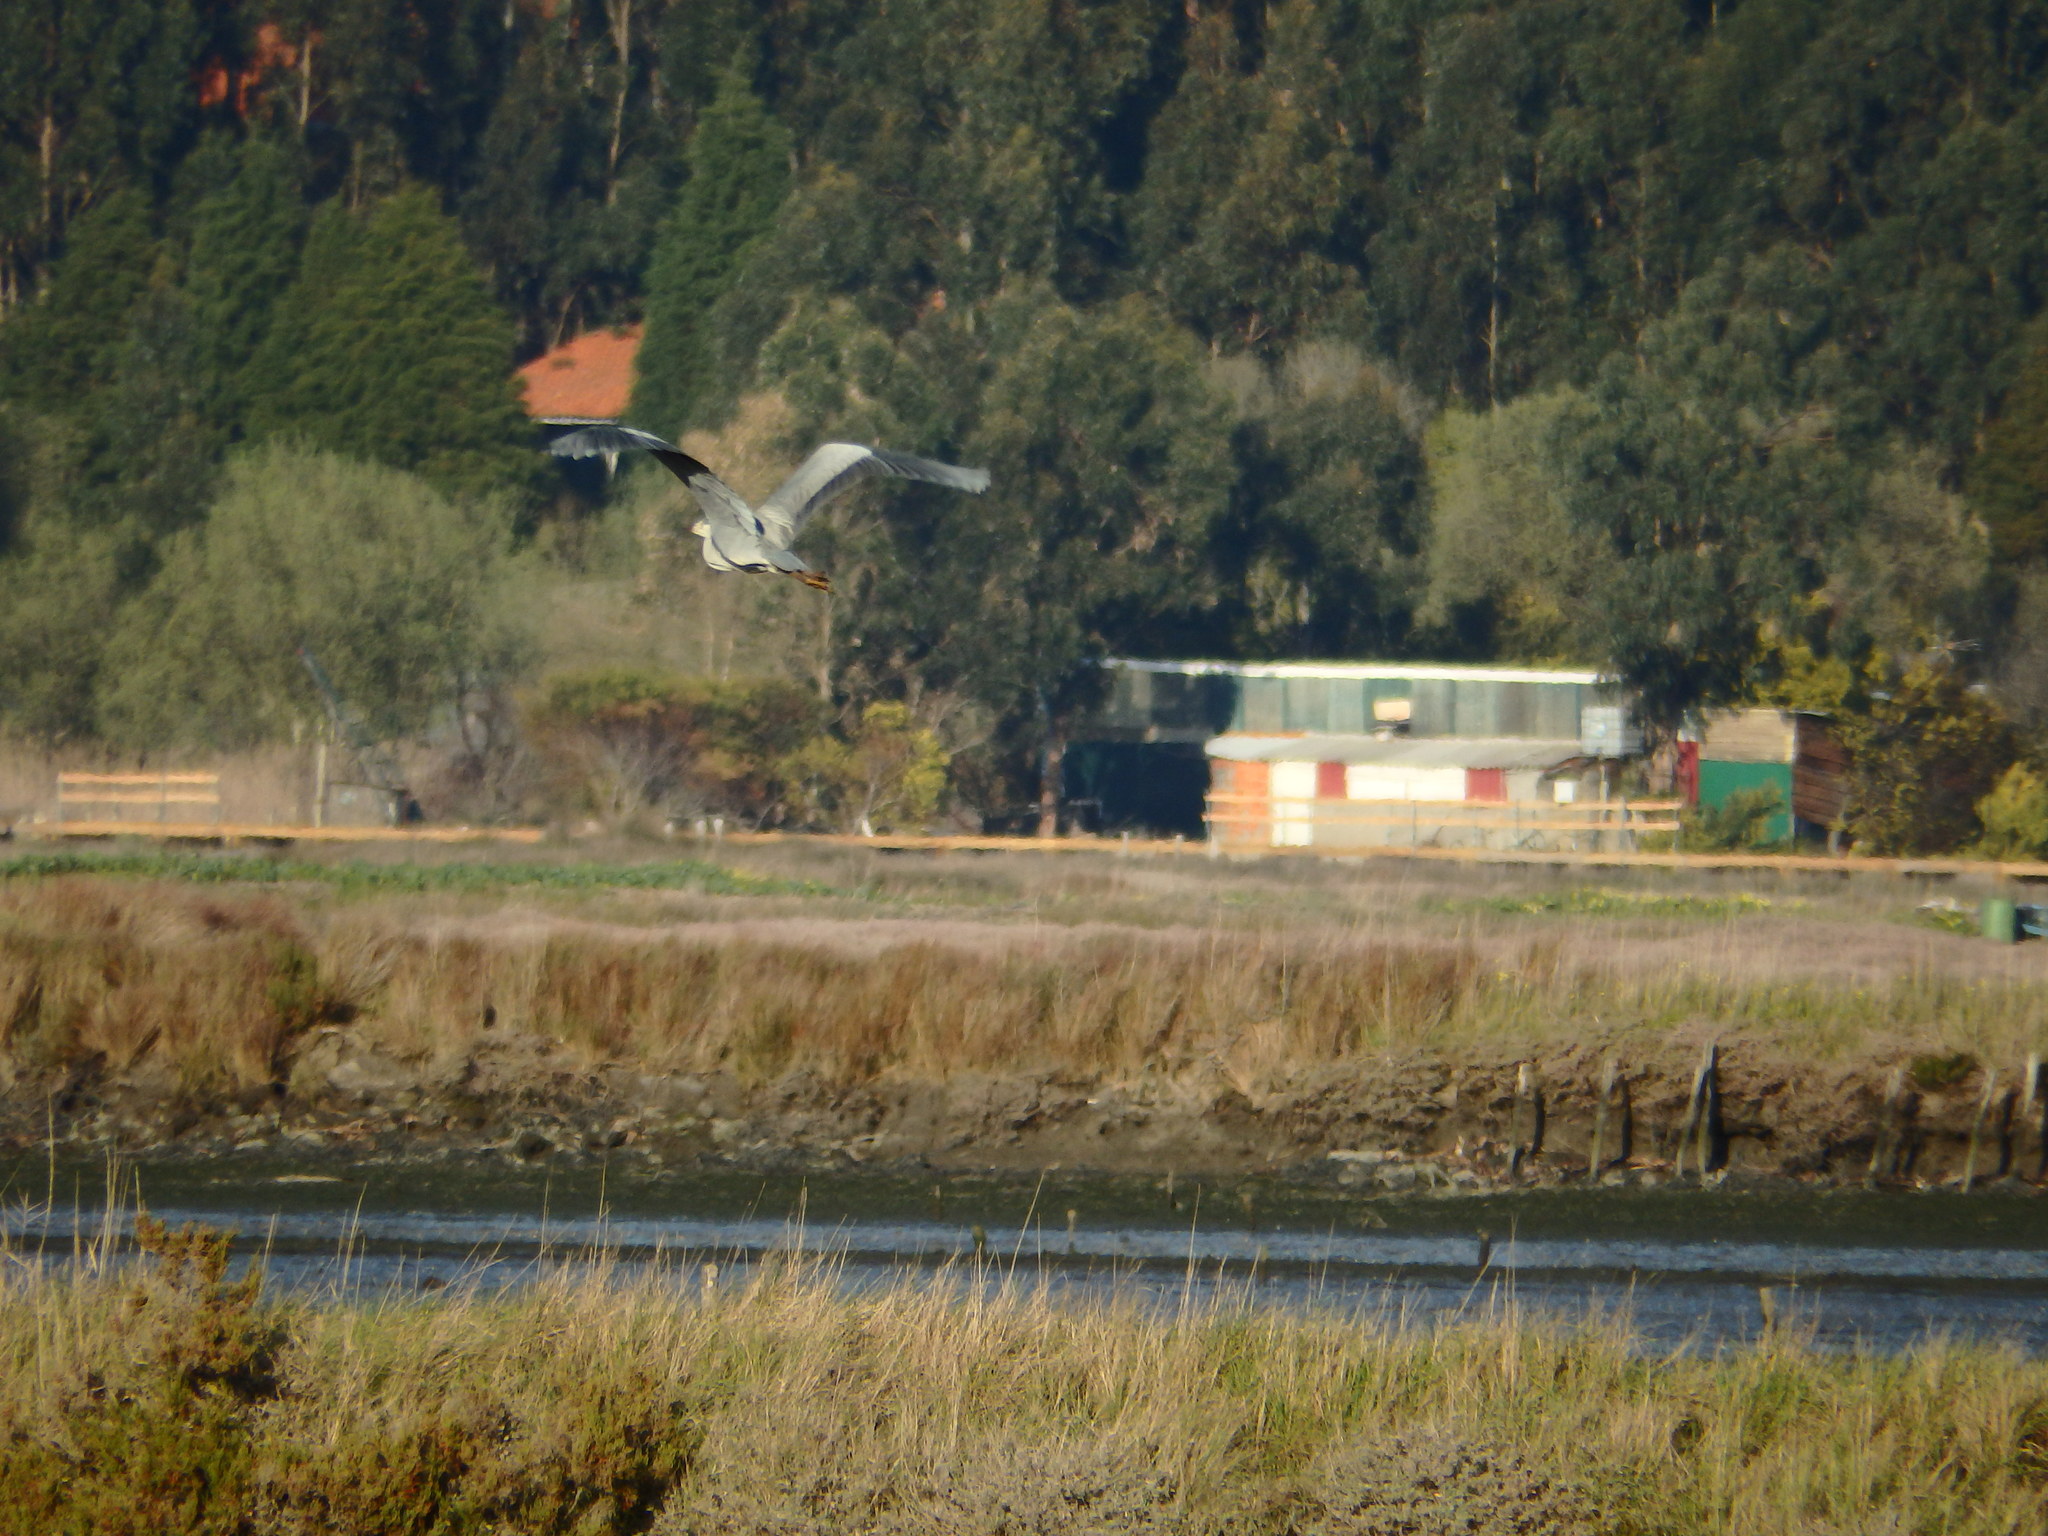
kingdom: Animalia
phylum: Chordata
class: Aves
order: Pelecaniformes
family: Ardeidae
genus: Ardea
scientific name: Ardea cinerea
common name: Grey heron
